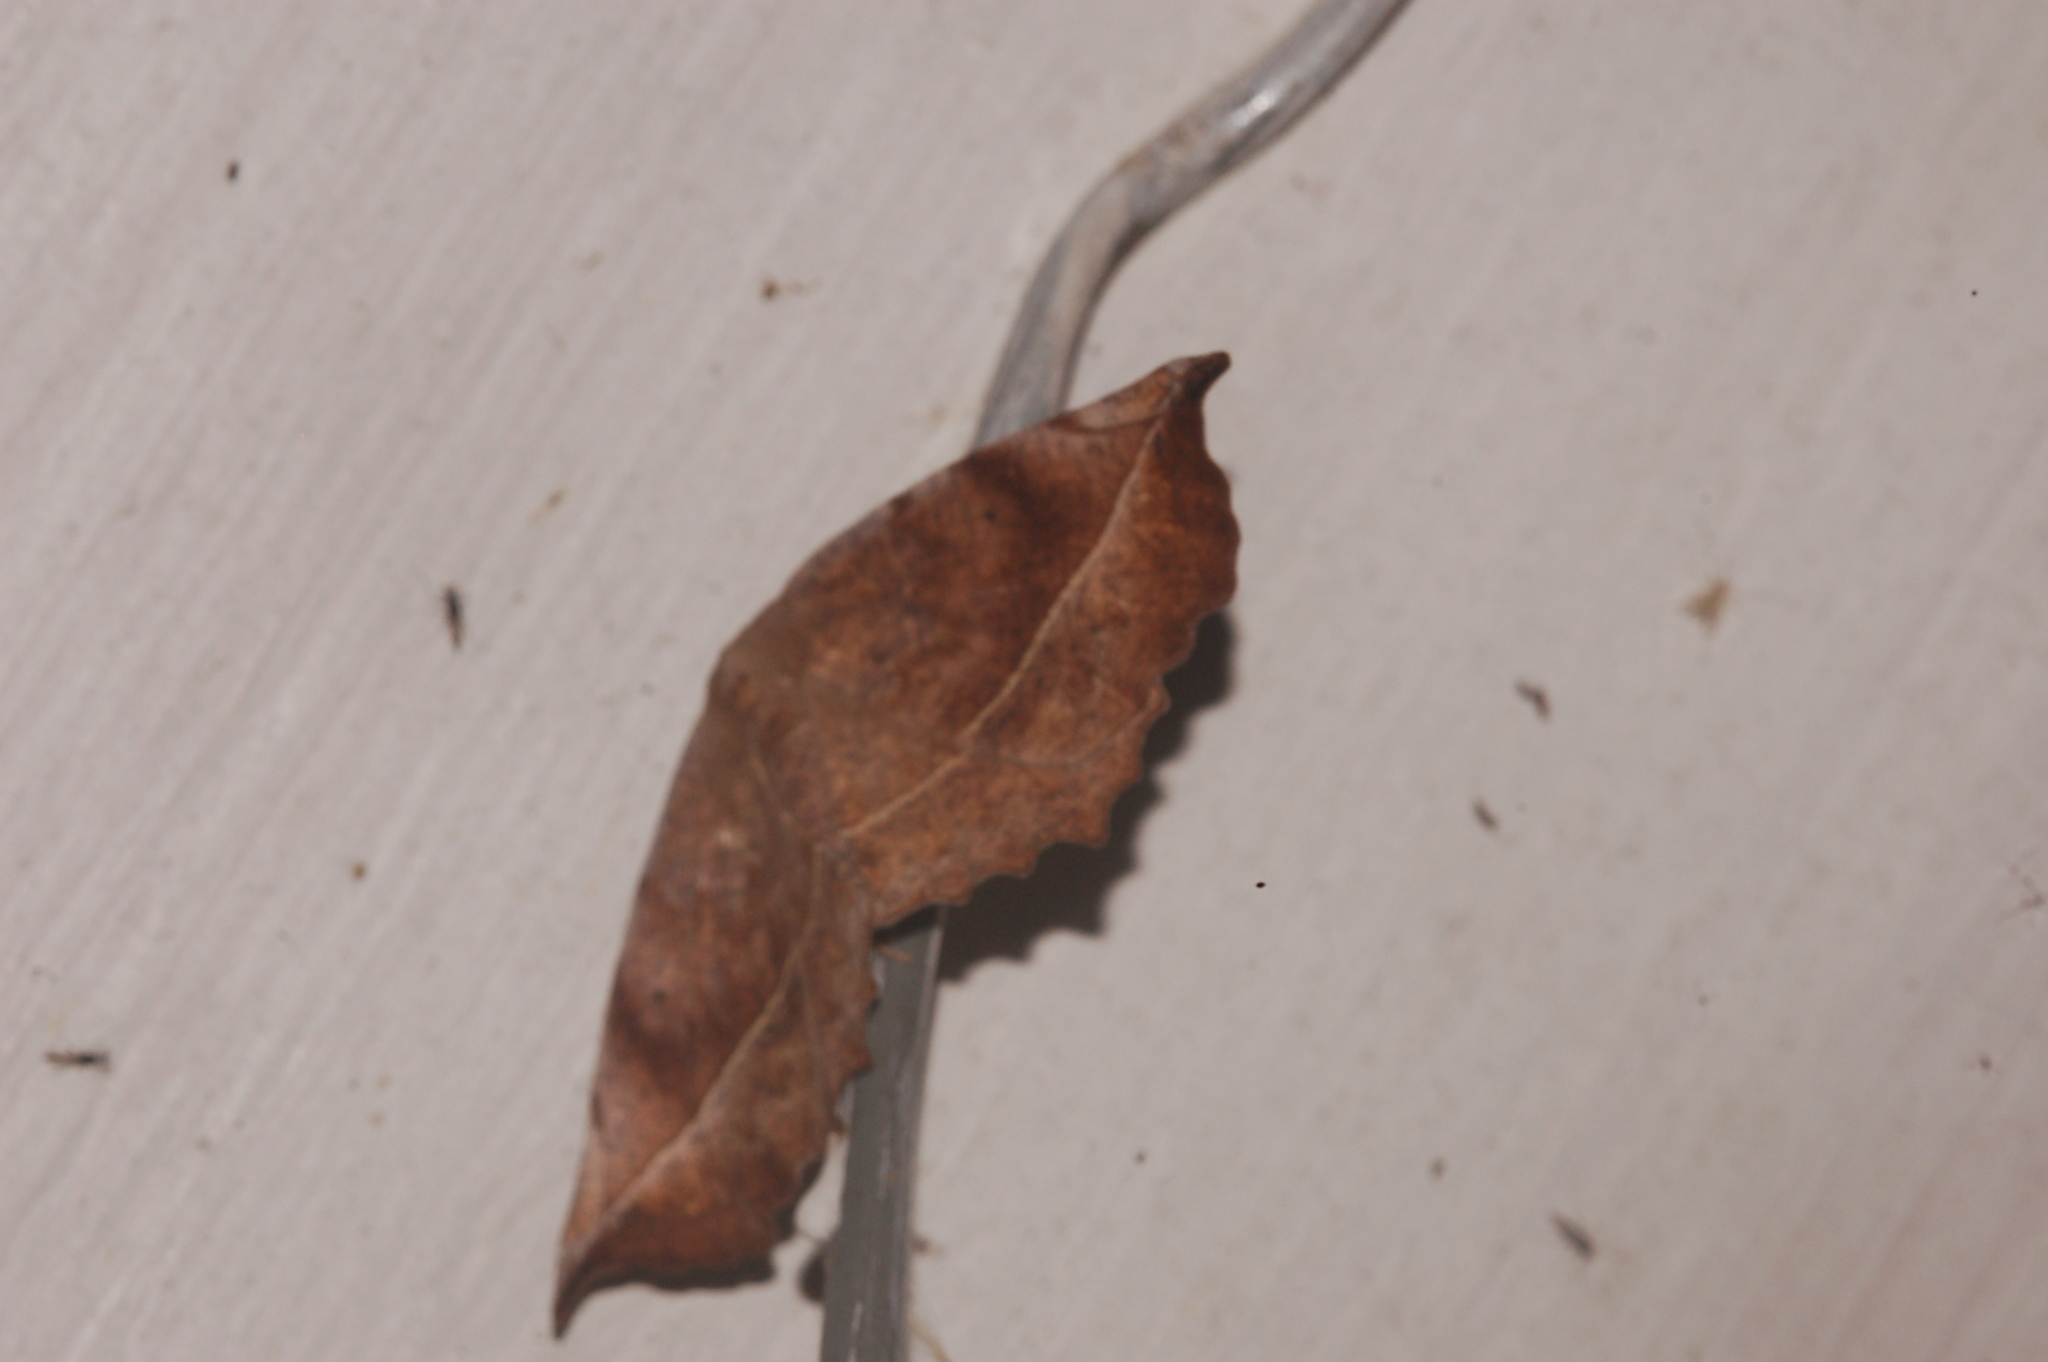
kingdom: Animalia
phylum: Arthropoda
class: Insecta
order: Lepidoptera
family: Geometridae
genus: Eutrapela
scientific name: Eutrapela clemataria
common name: Curved-toothed geometer
